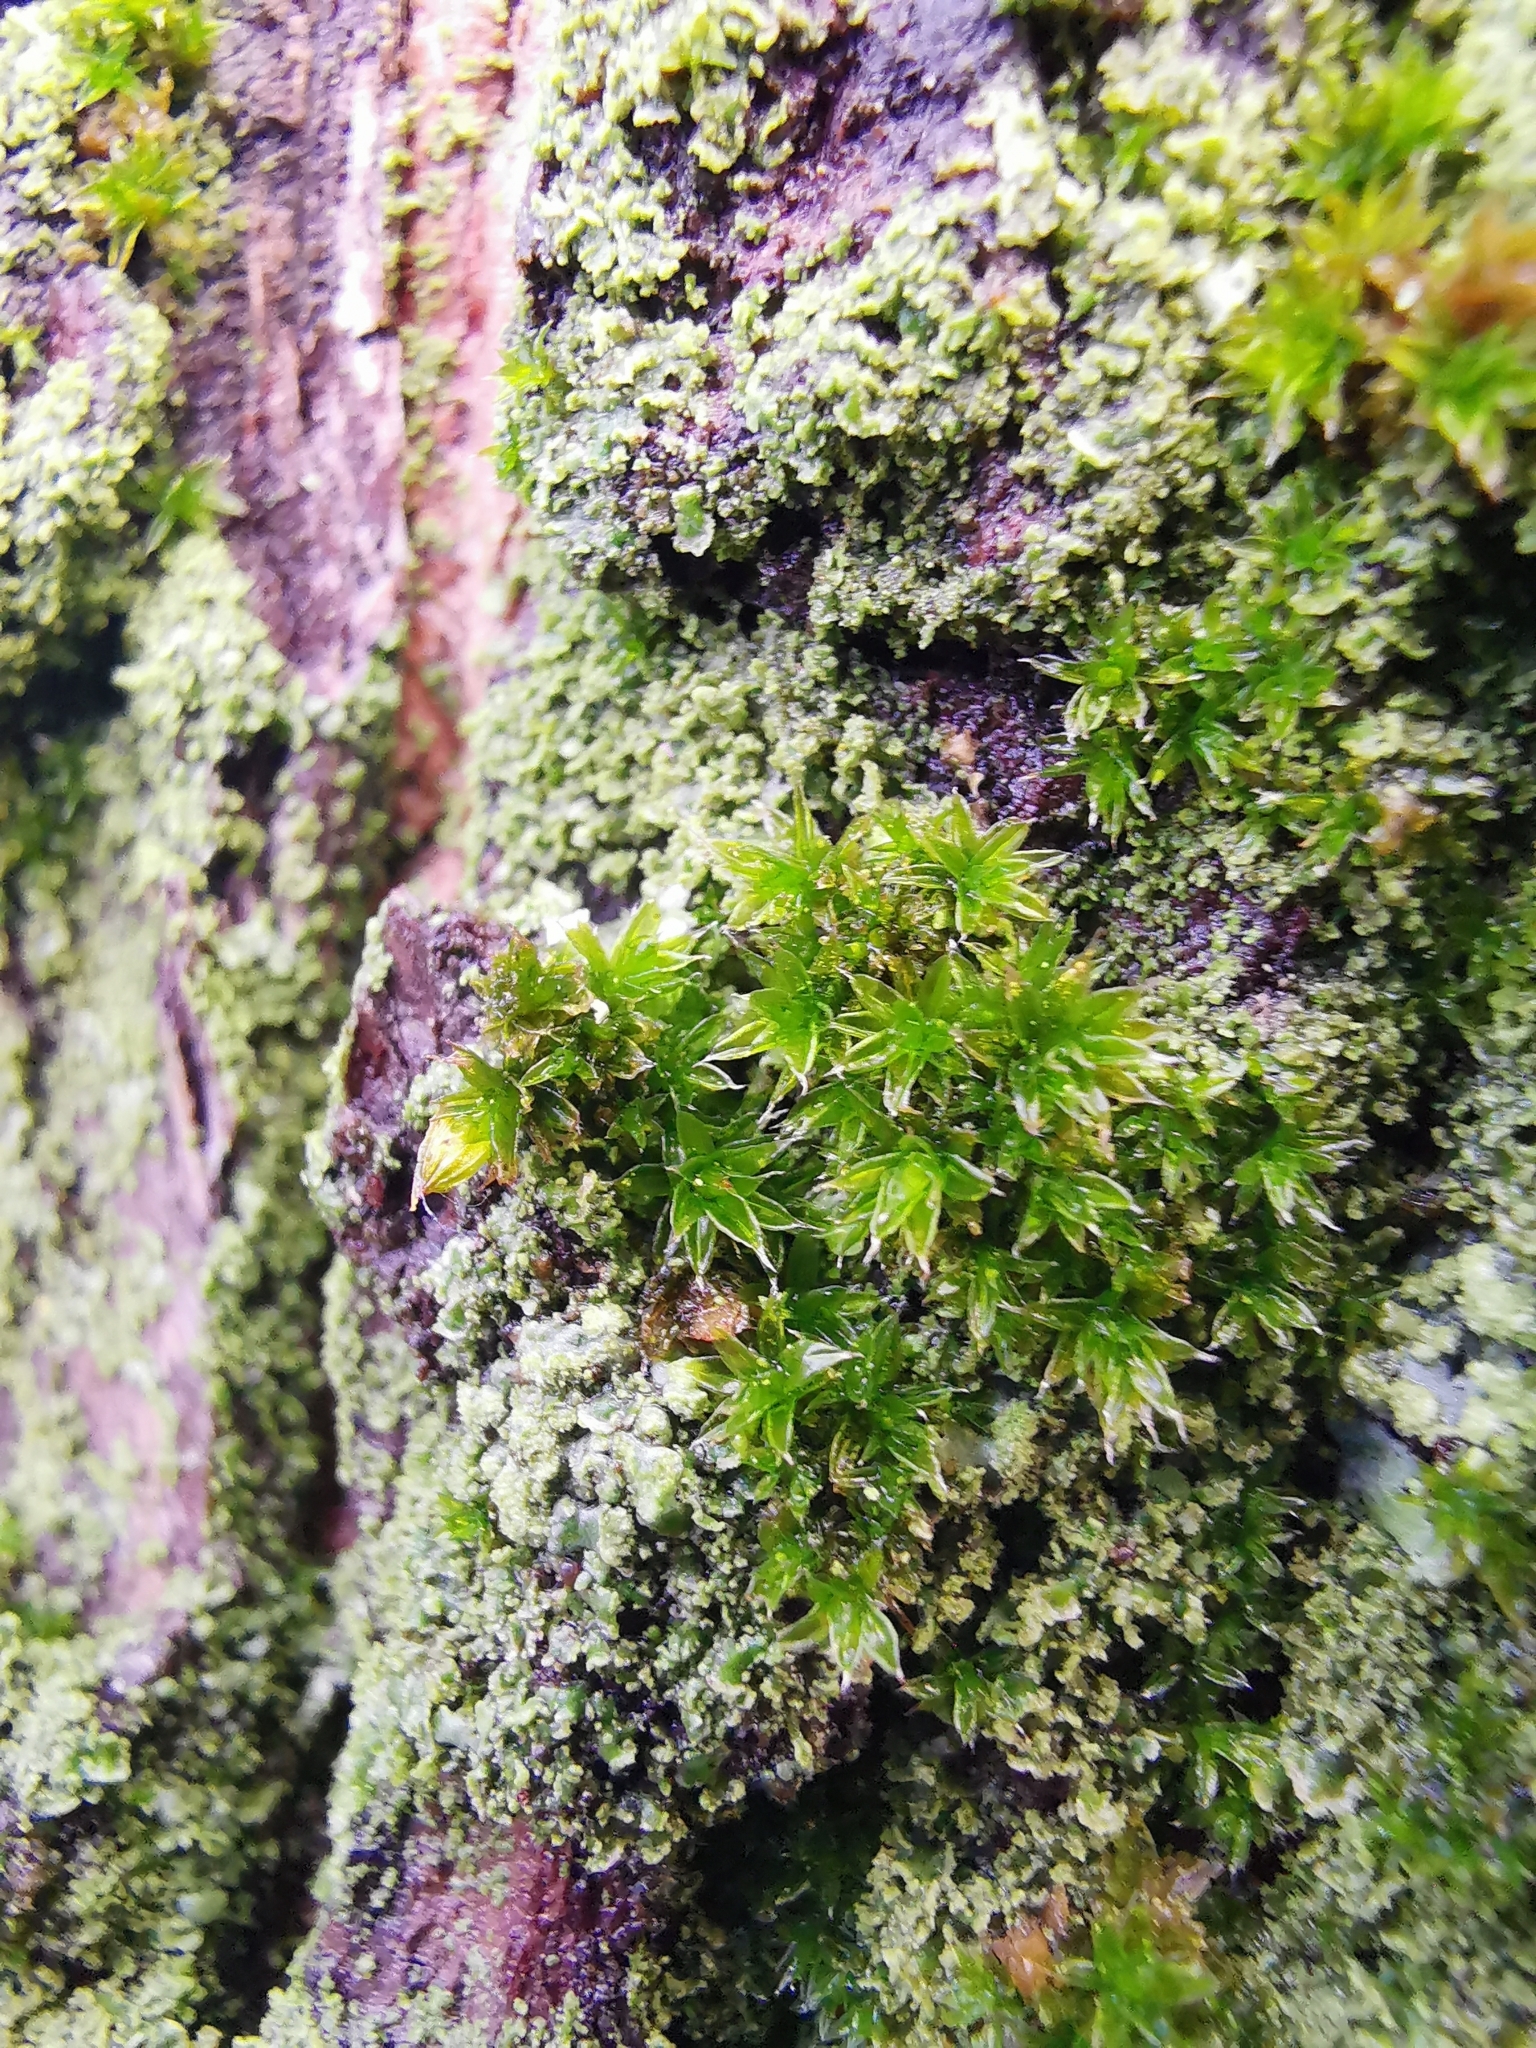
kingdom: Plantae
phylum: Bryophyta
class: Bryopsida
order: Orthotrichales
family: Orthotrichaceae
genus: Orthotrichum
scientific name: Orthotrichum diaphanum
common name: White-tipped bristle-moss
